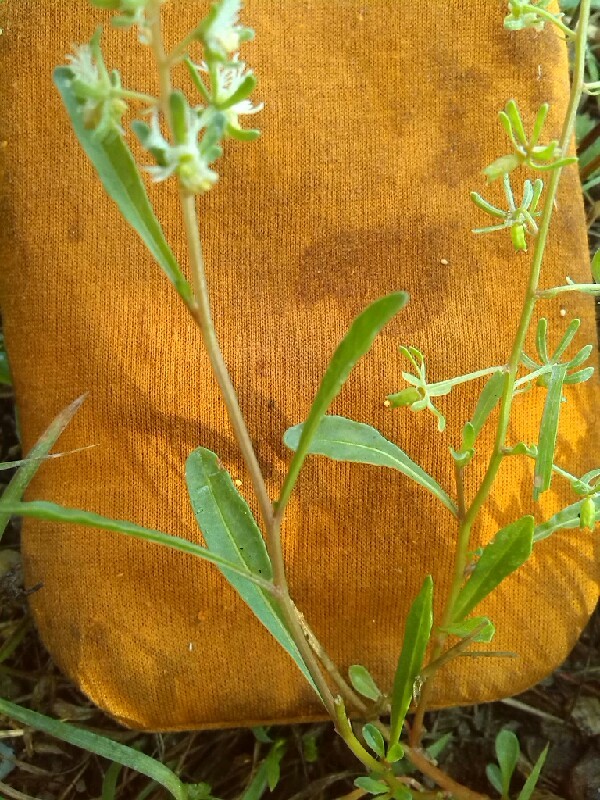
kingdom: Plantae
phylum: Tracheophyta
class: Magnoliopsida
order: Brassicales
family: Resedaceae
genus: Reseda
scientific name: Reseda phyteuma
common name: Corn mignonette
